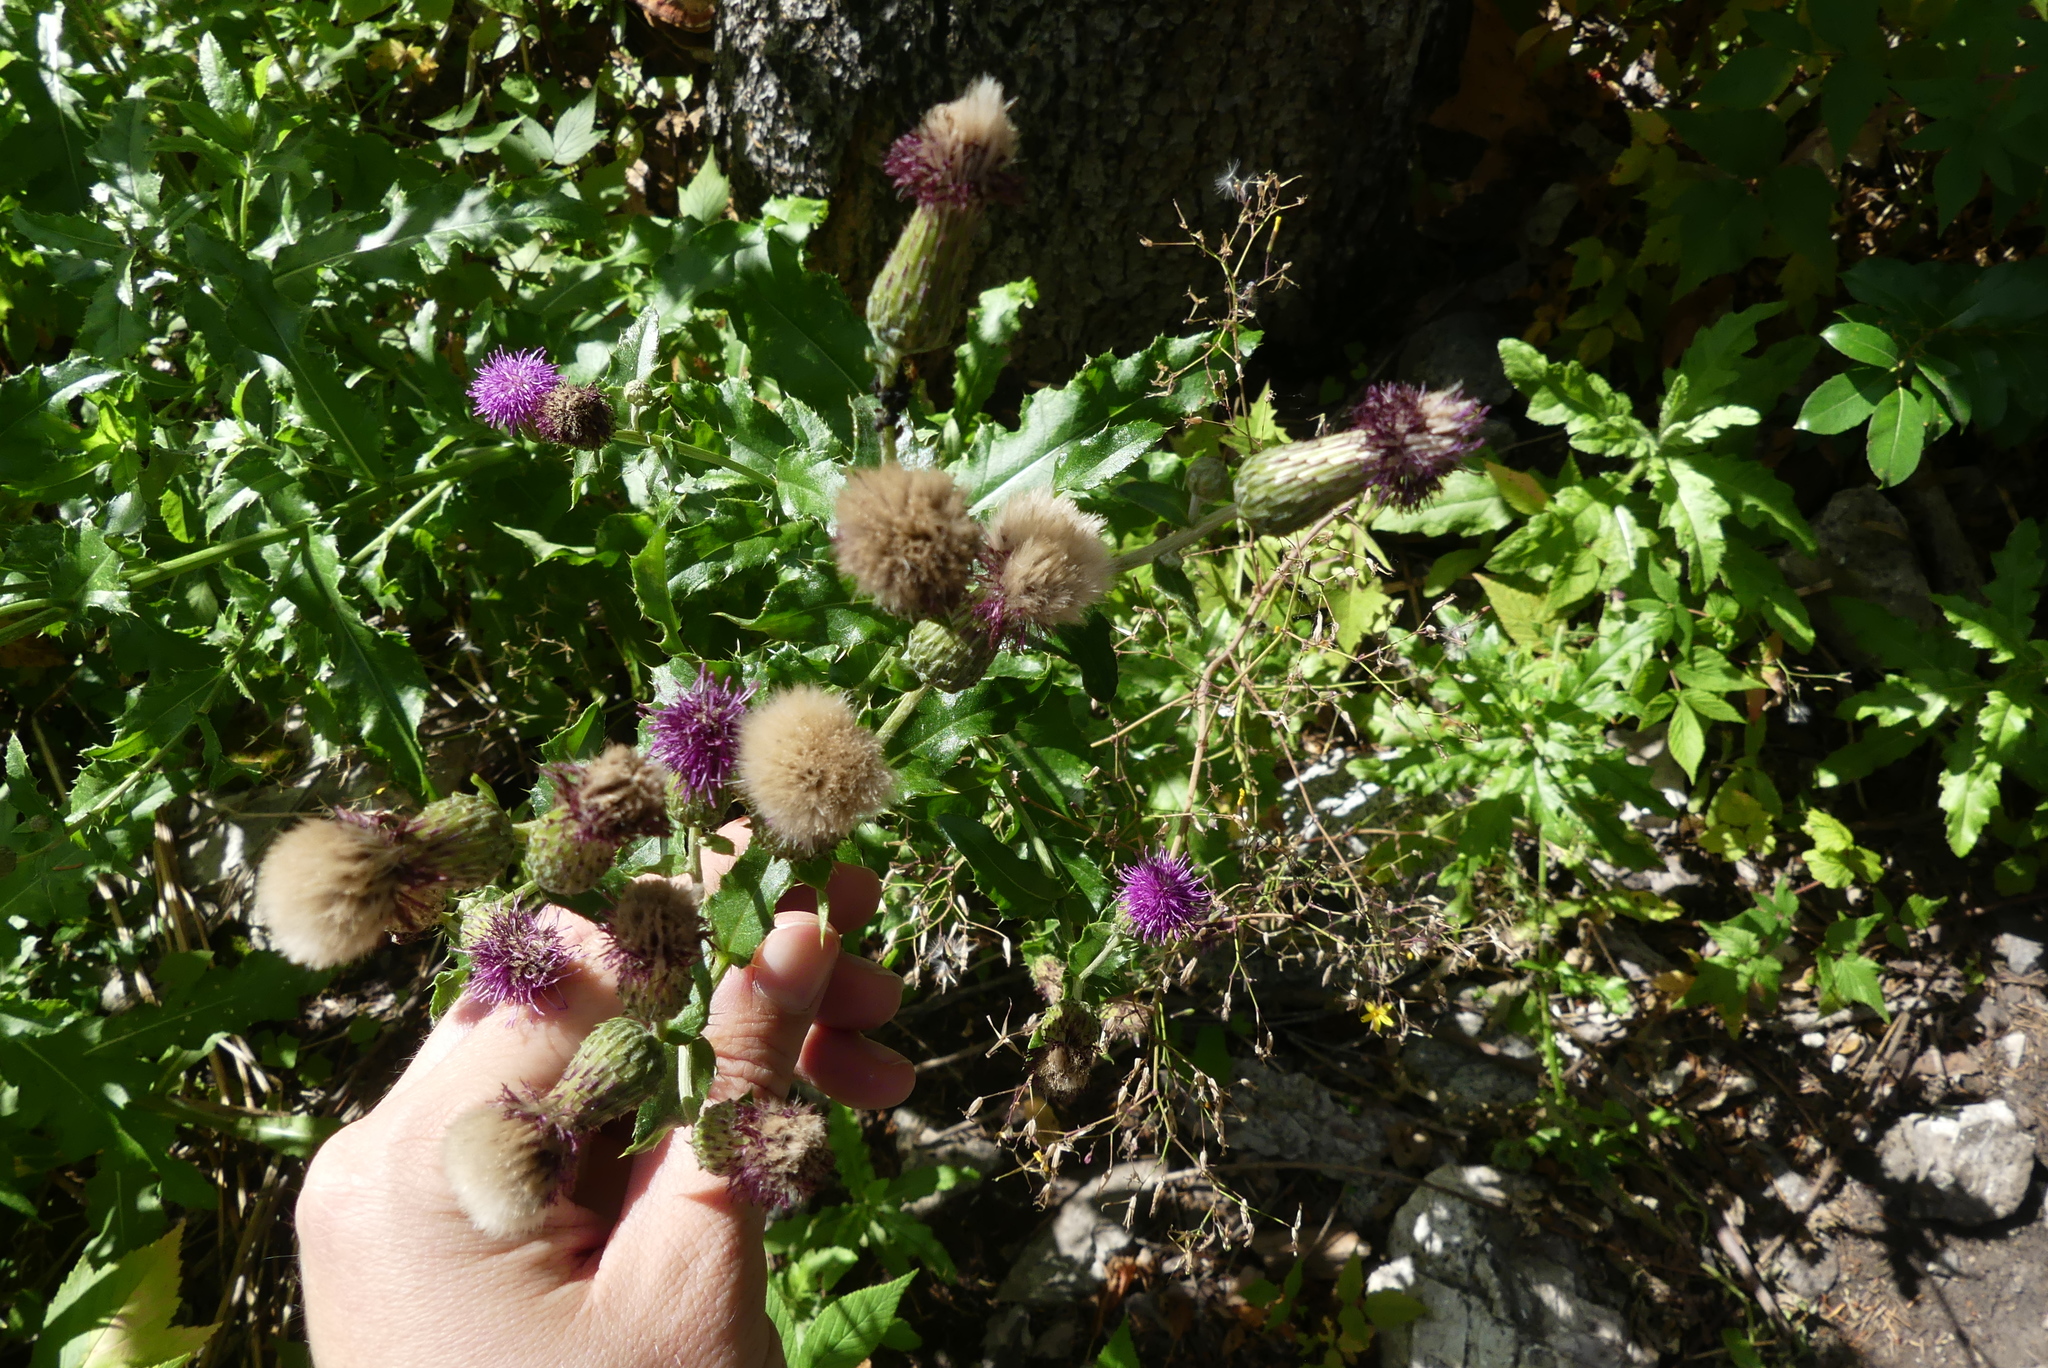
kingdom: Plantae
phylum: Tracheophyta
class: Magnoliopsida
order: Asterales
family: Asteraceae
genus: Cirsium
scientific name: Cirsium arvense
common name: Creeping thistle
